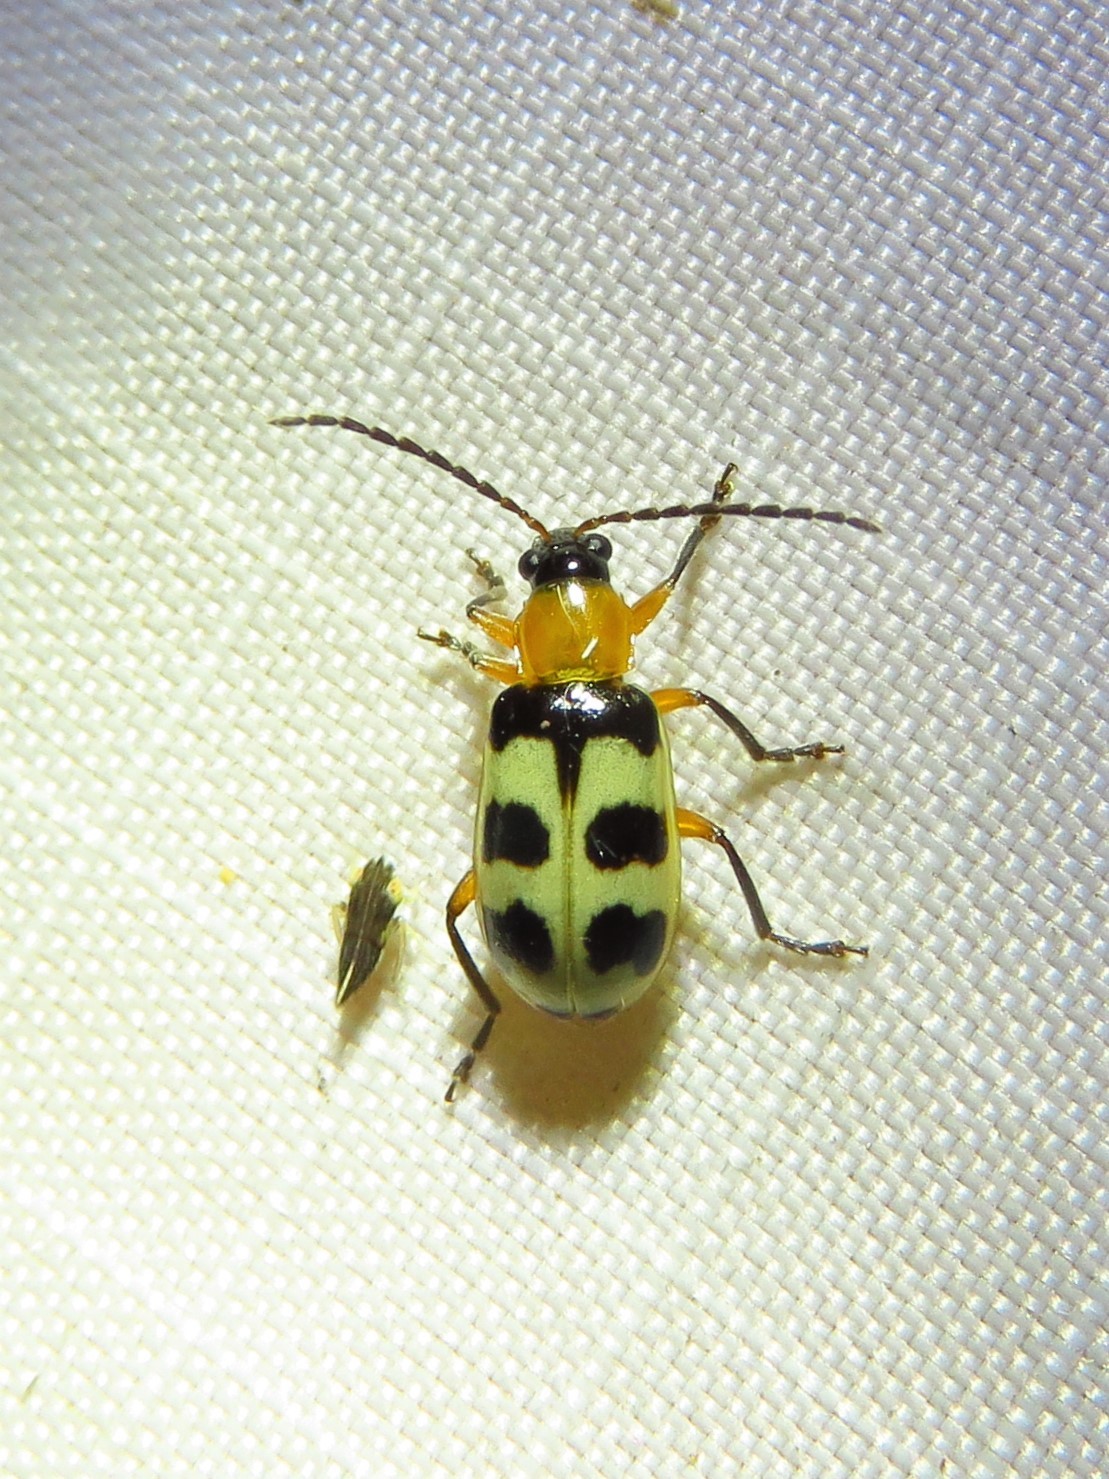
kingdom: Animalia
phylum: Arthropoda
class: Insecta
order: Coleoptera
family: Chrysomelidae
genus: Paranapiacaba
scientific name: Paranapiacaba tricincta
